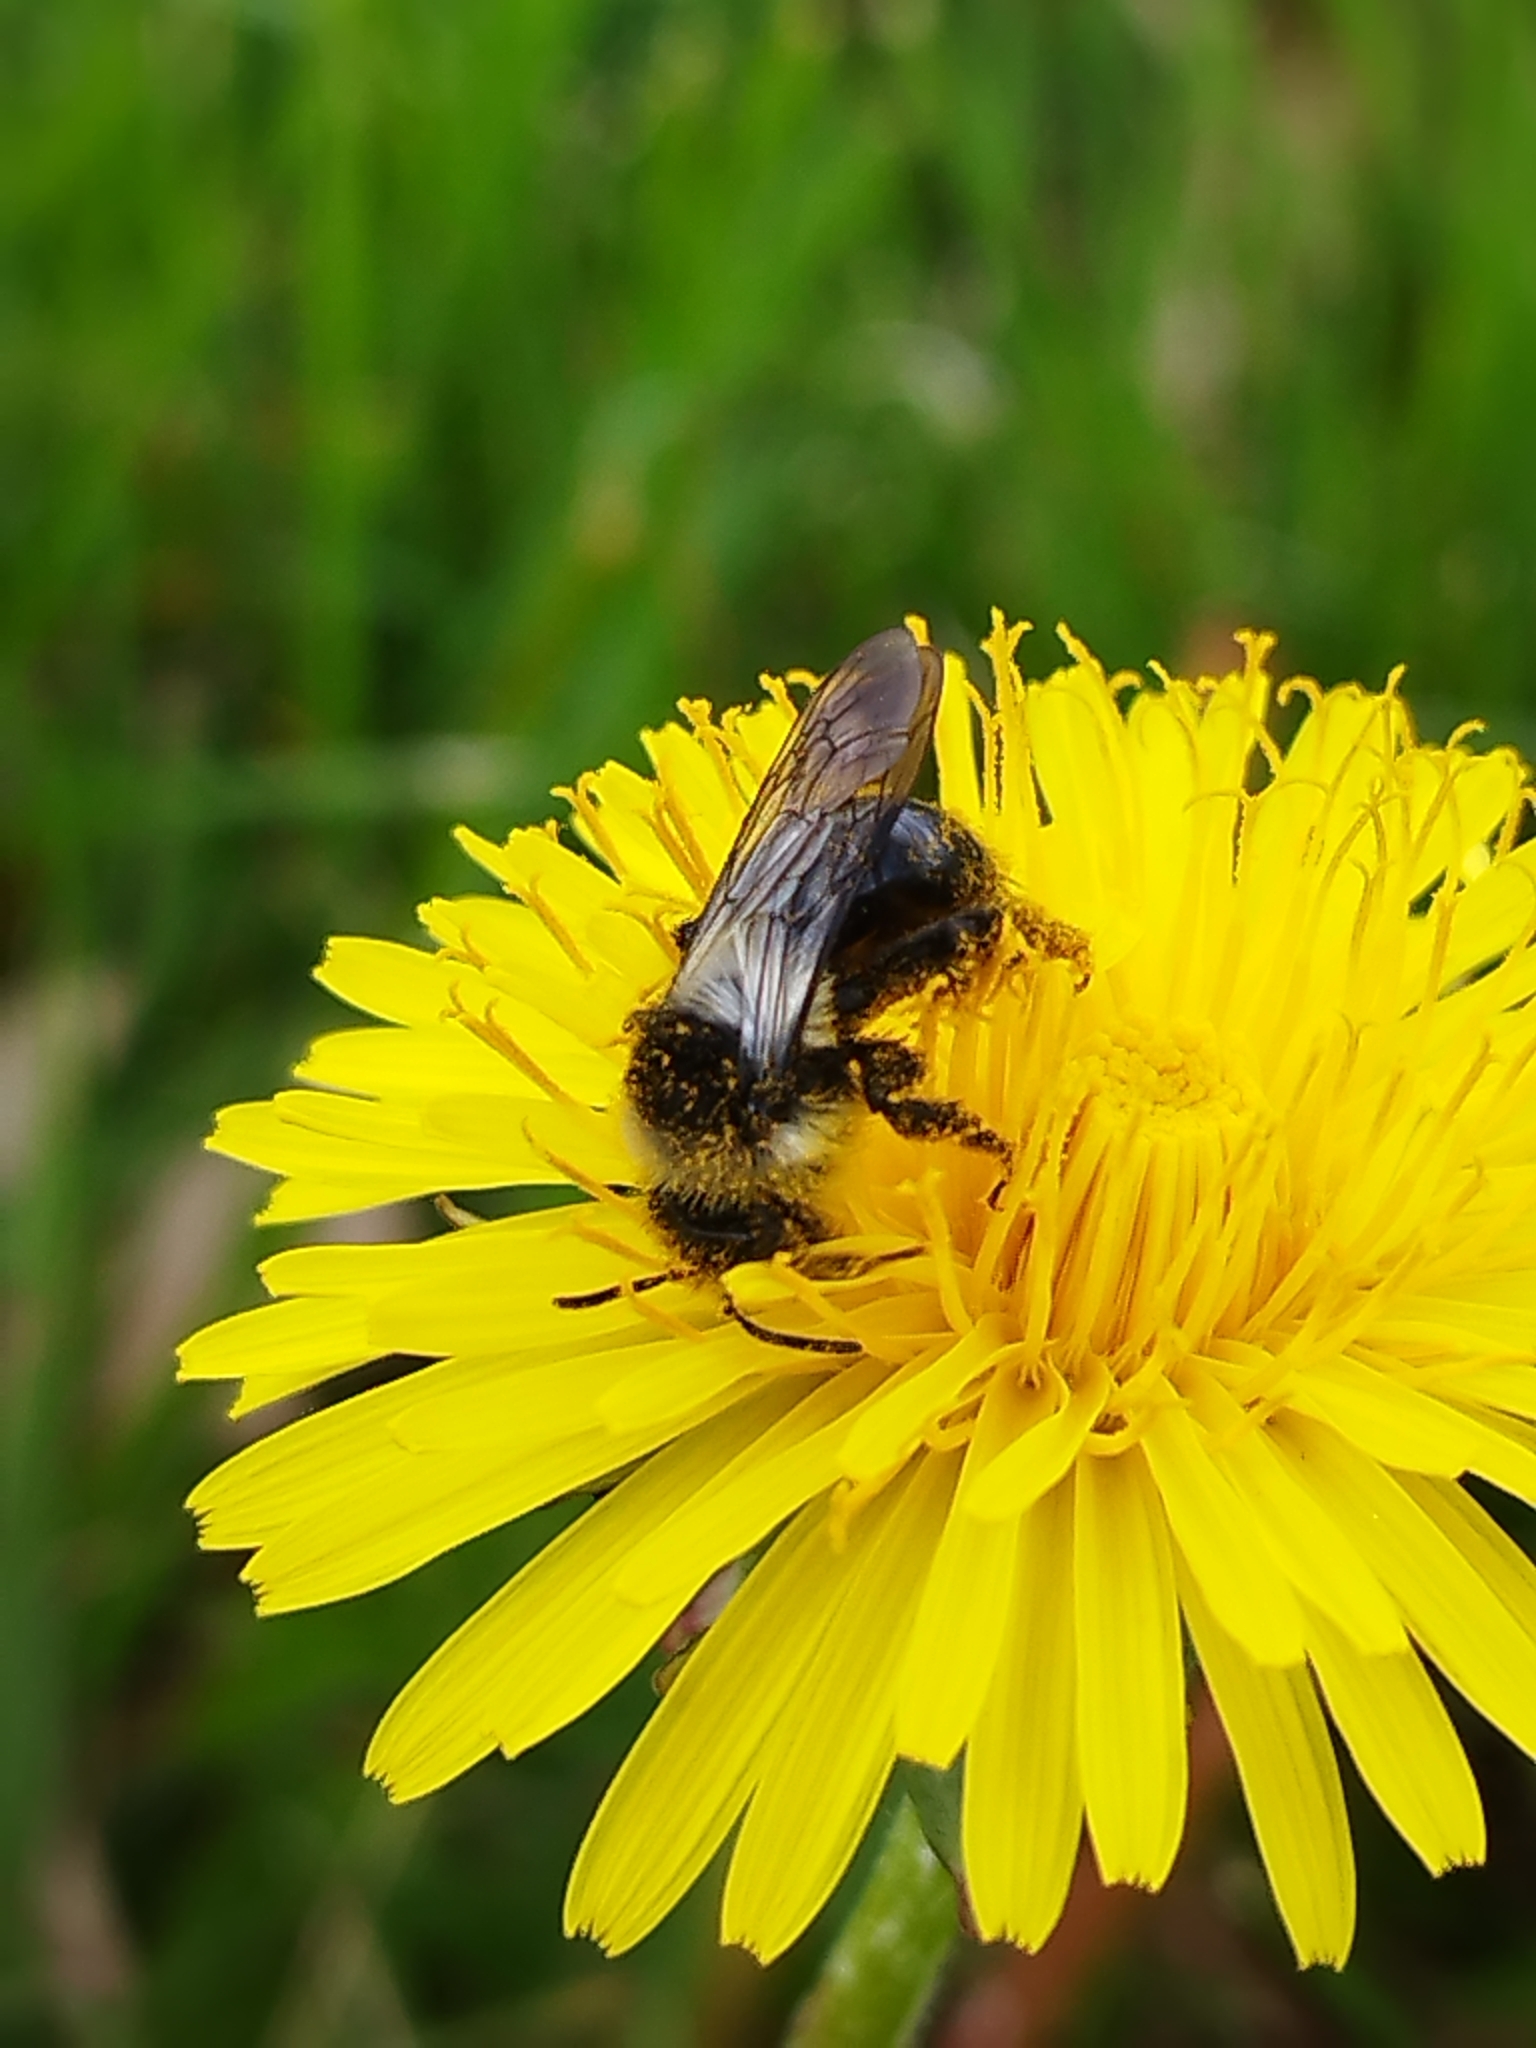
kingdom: Animalia
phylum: Arthropoda
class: Insecta
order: Hymenoptera
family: Andrenidae
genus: Andrena
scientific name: Andrena cineraria
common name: Ashy mining bee
